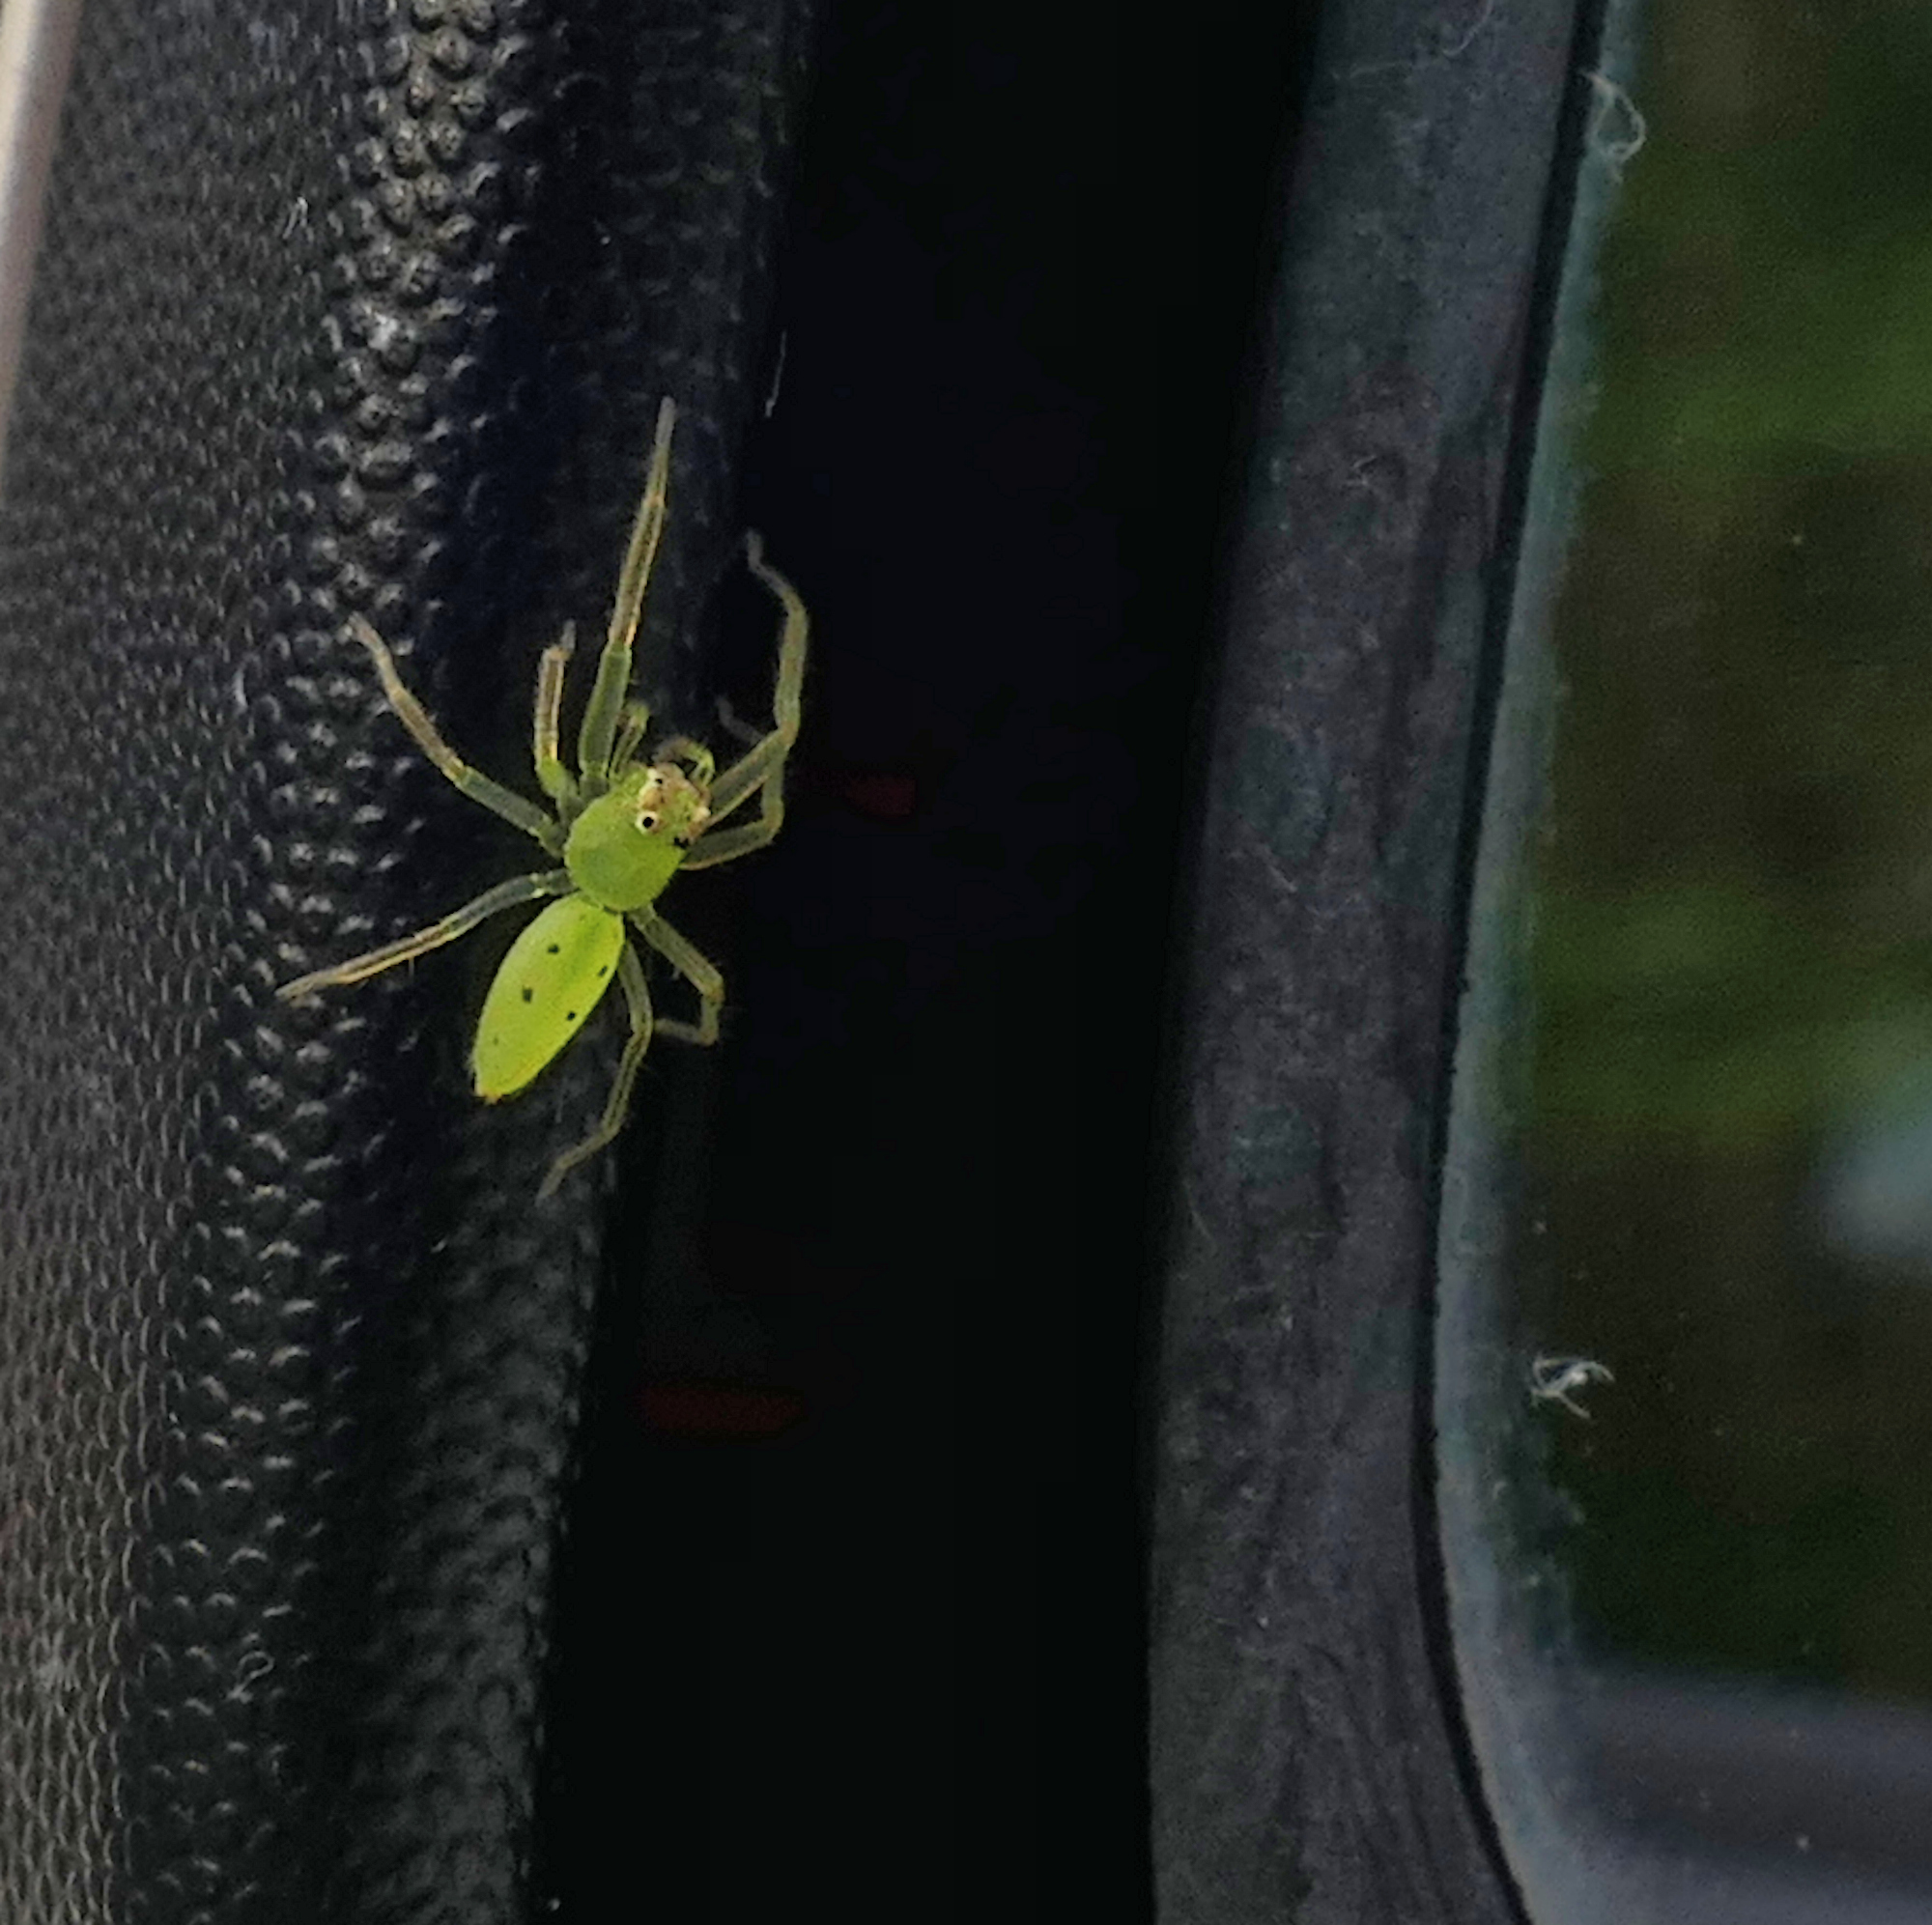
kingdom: Animalia
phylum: Arthropoda
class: Arachnida
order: Araneae
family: Salticidae
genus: Lyssomanes
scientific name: Lyssomanes viridis
